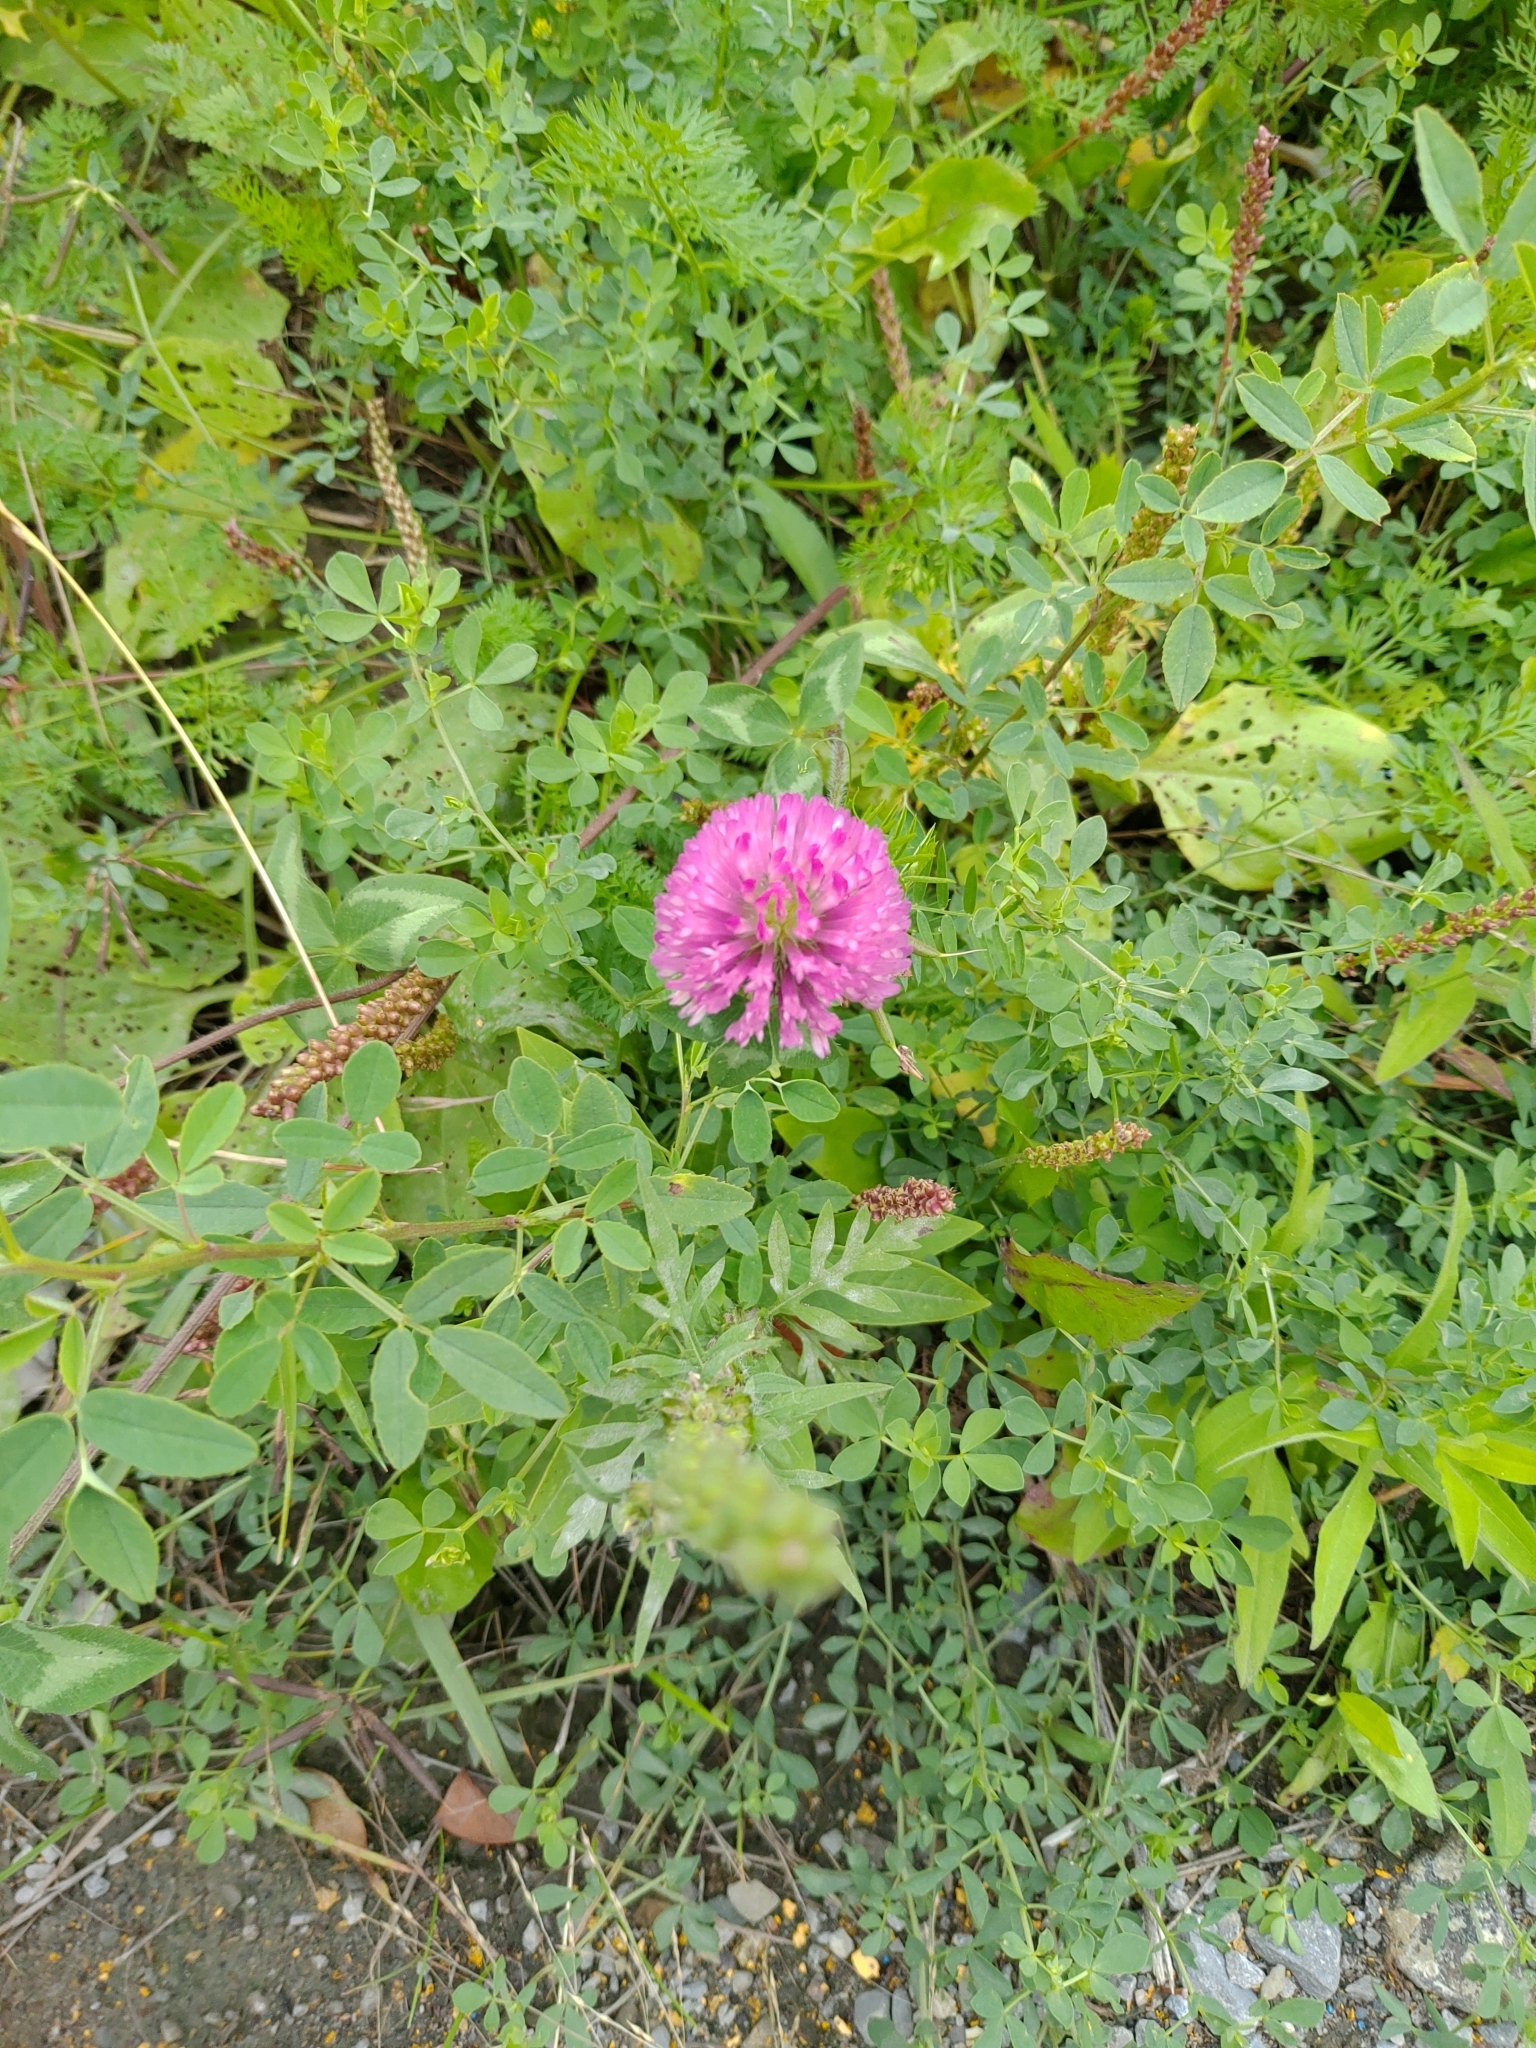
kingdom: Plantae
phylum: Tracheophyta
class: Magnoliopsida
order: Fabales
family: Fabaceae
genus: Trifolium
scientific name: Trifolium pratense
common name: Red clover
